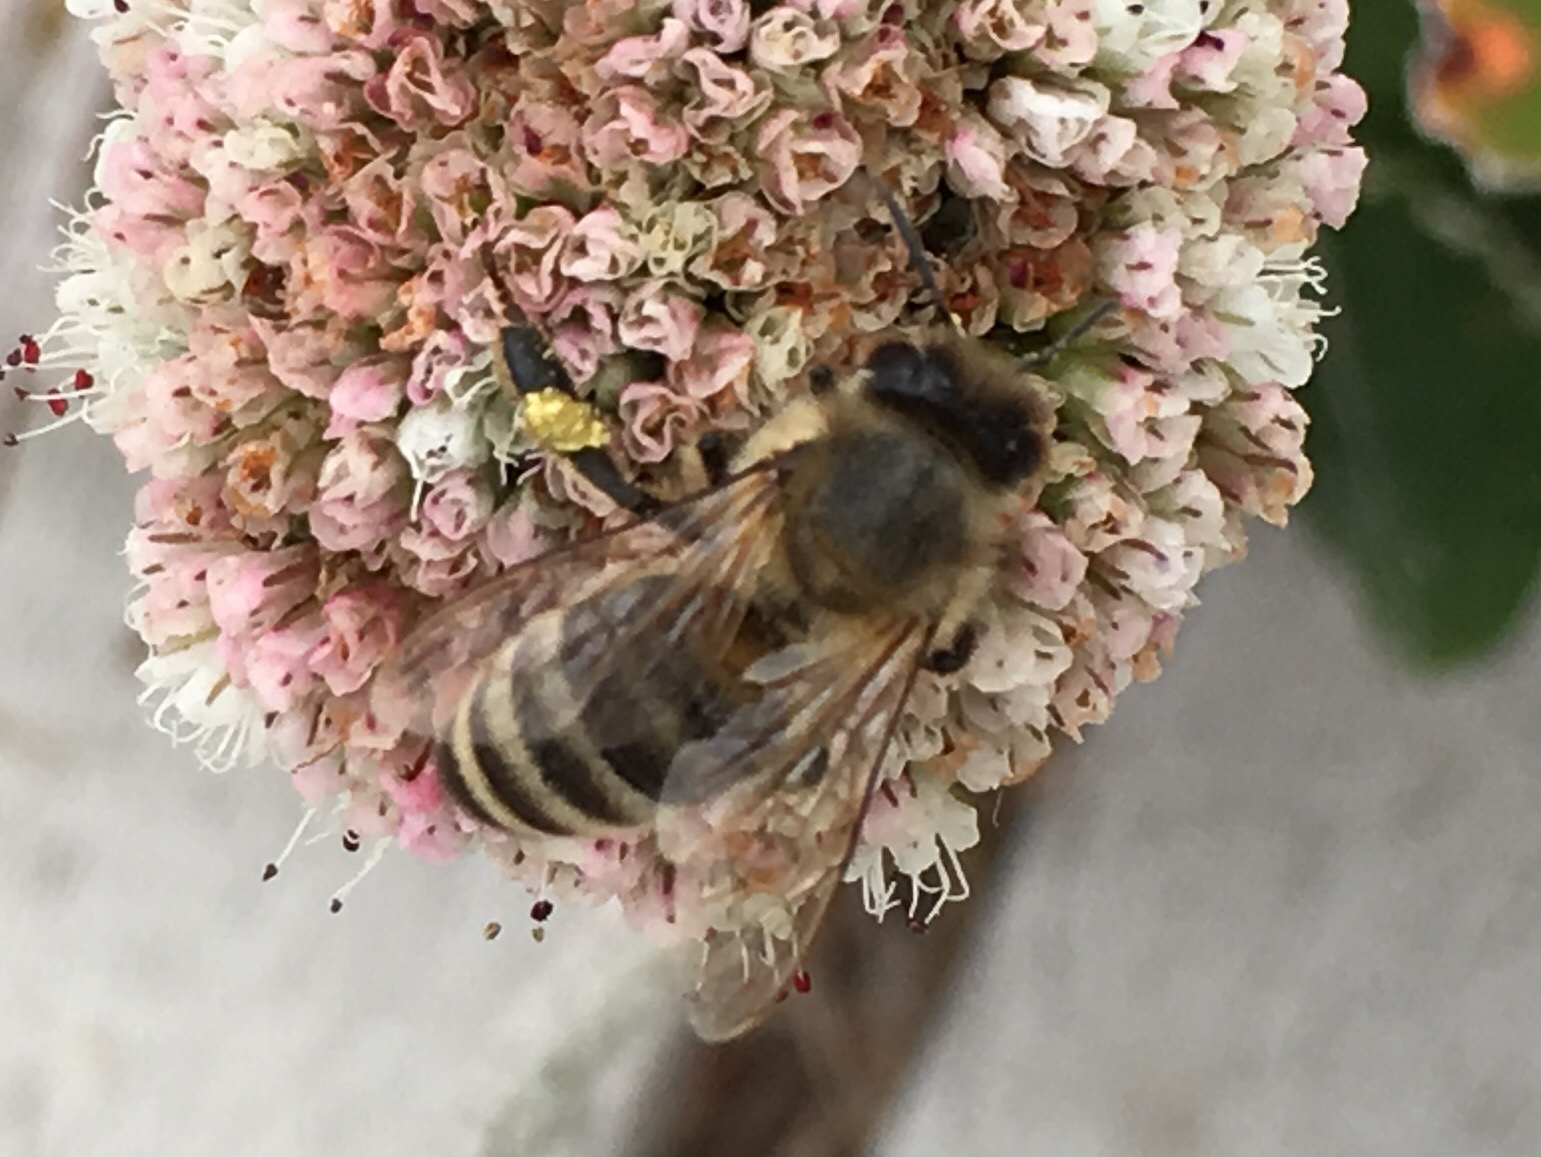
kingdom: Animalia
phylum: Arthropoda
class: Insecta
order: Hymenoptera
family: Apidae
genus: Apis
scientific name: Apis mellifera
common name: Honey bee
